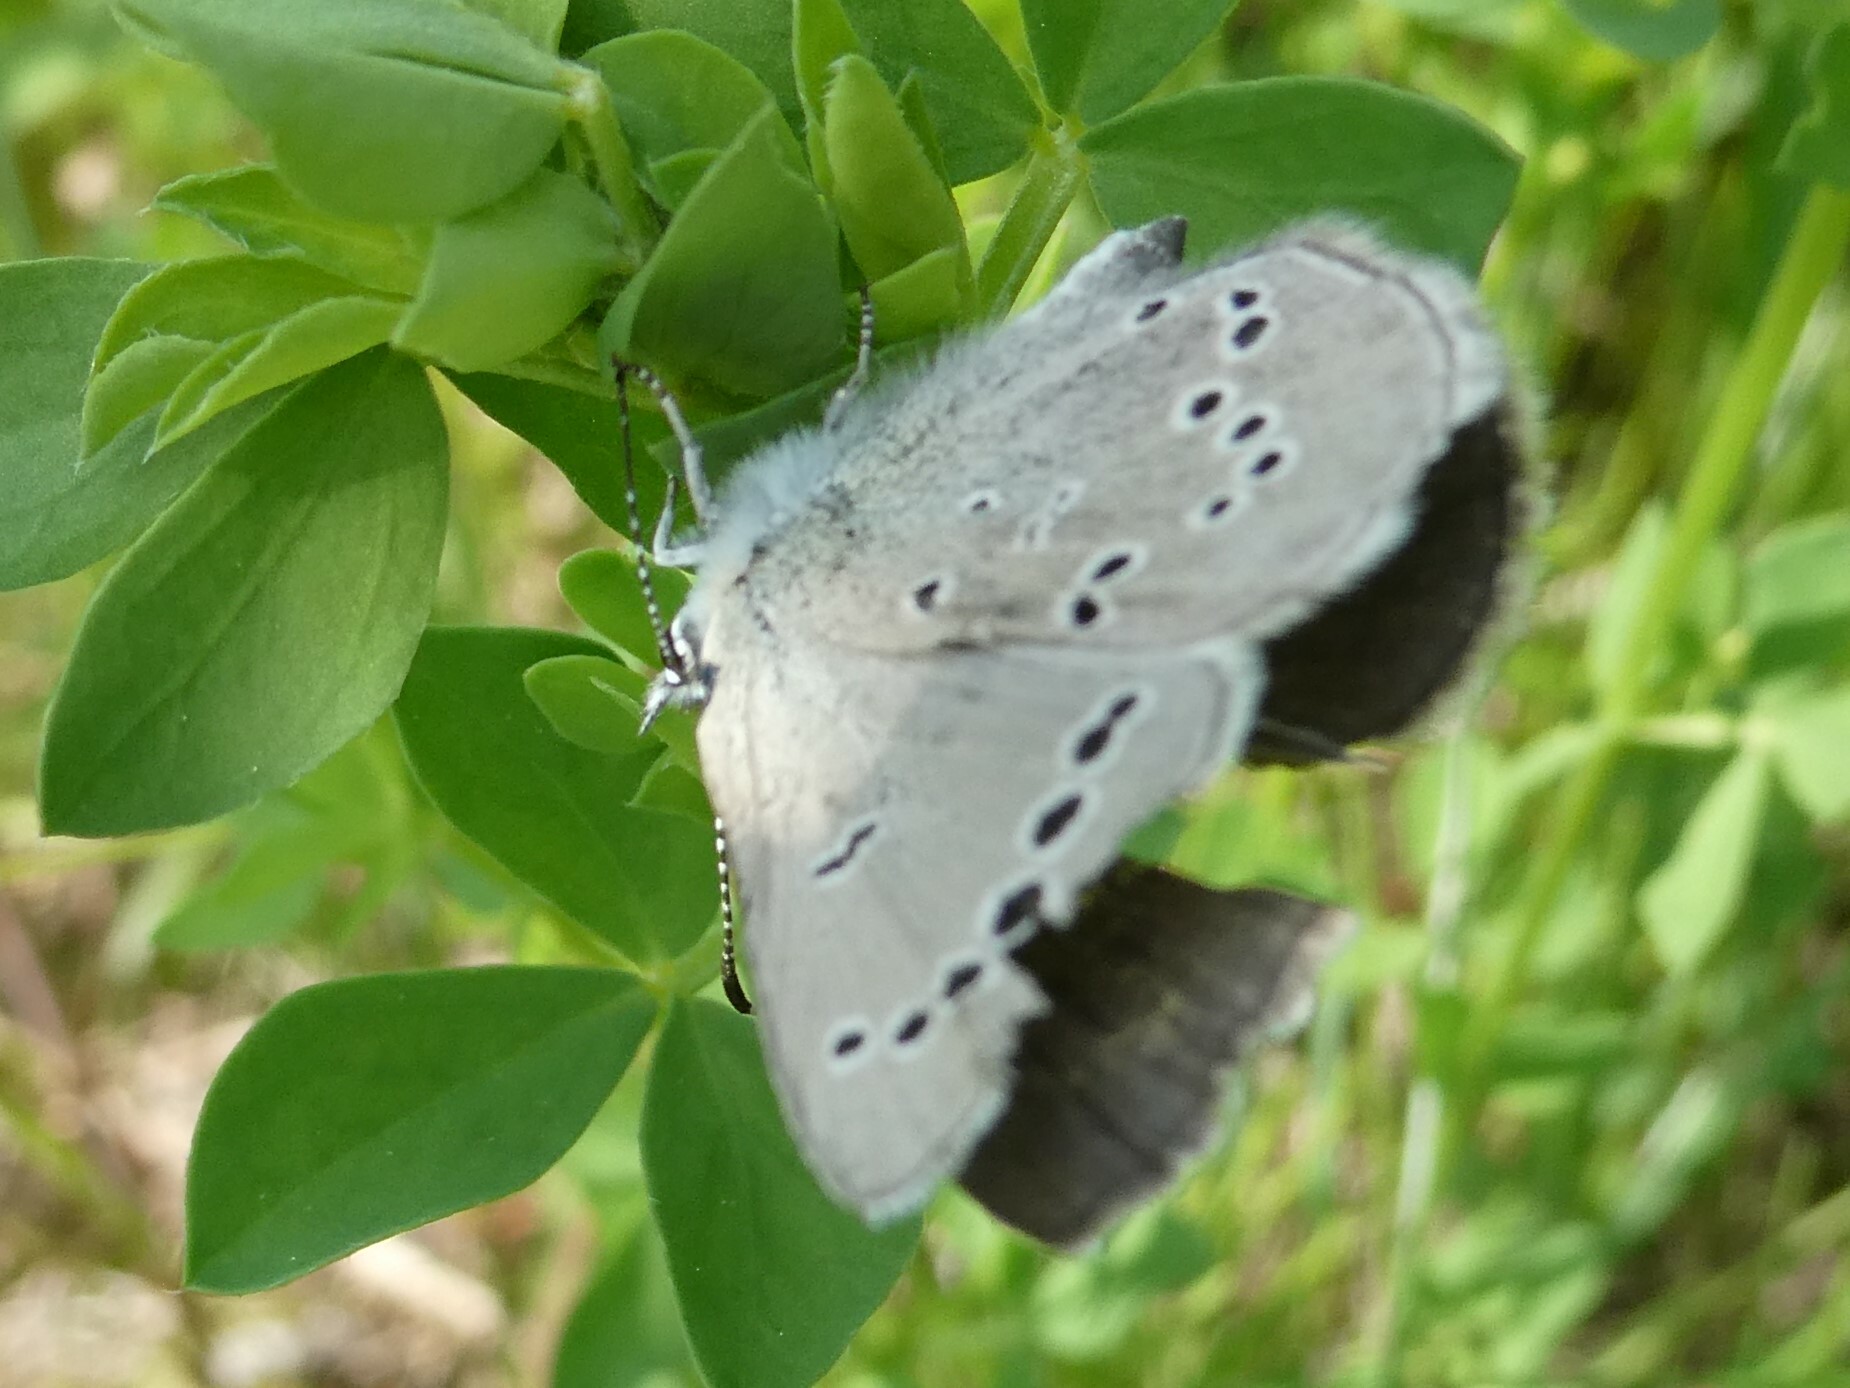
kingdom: Animalia
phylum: Arthropoda
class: Insecta
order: Lepidoptera
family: Lycaenidae
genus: Glaucopsyche
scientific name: Glaucopsyche lygdamus
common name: Silvery blue
